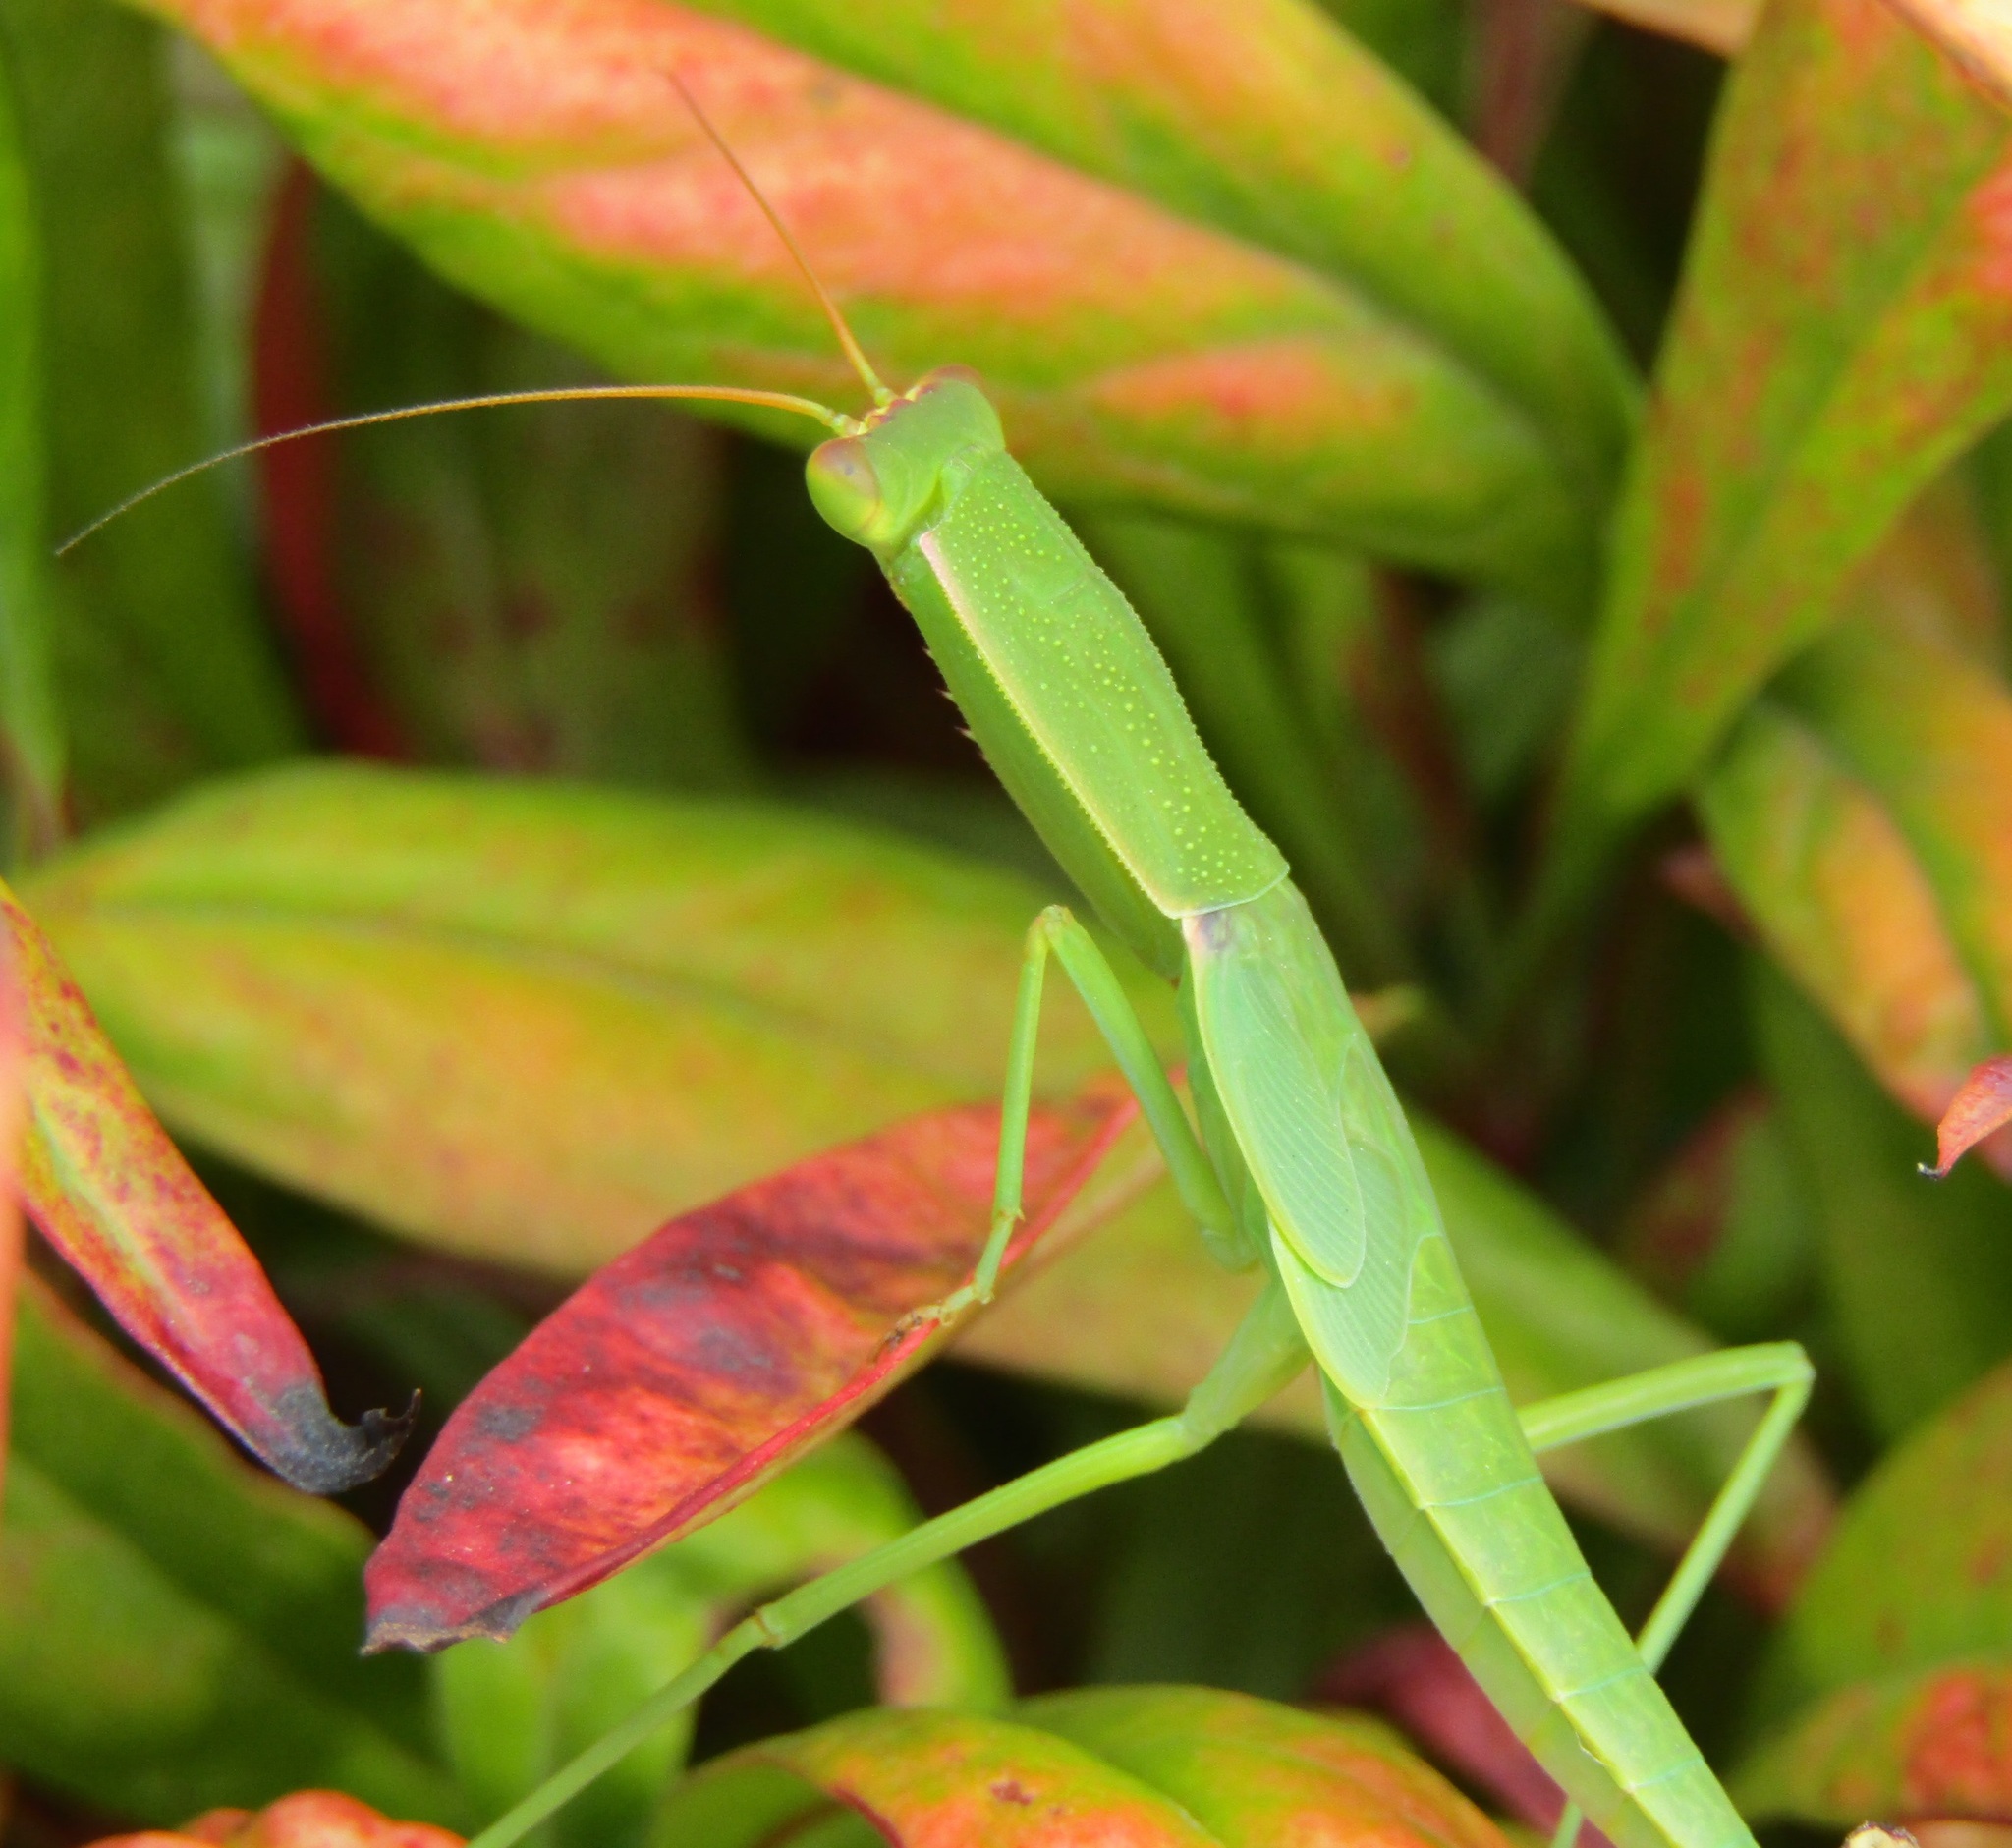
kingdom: Animalia
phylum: Arthropoda
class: Insecta
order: Mantodea
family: Mantidae
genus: Orthodera
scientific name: Orthodera novaezealandiae
